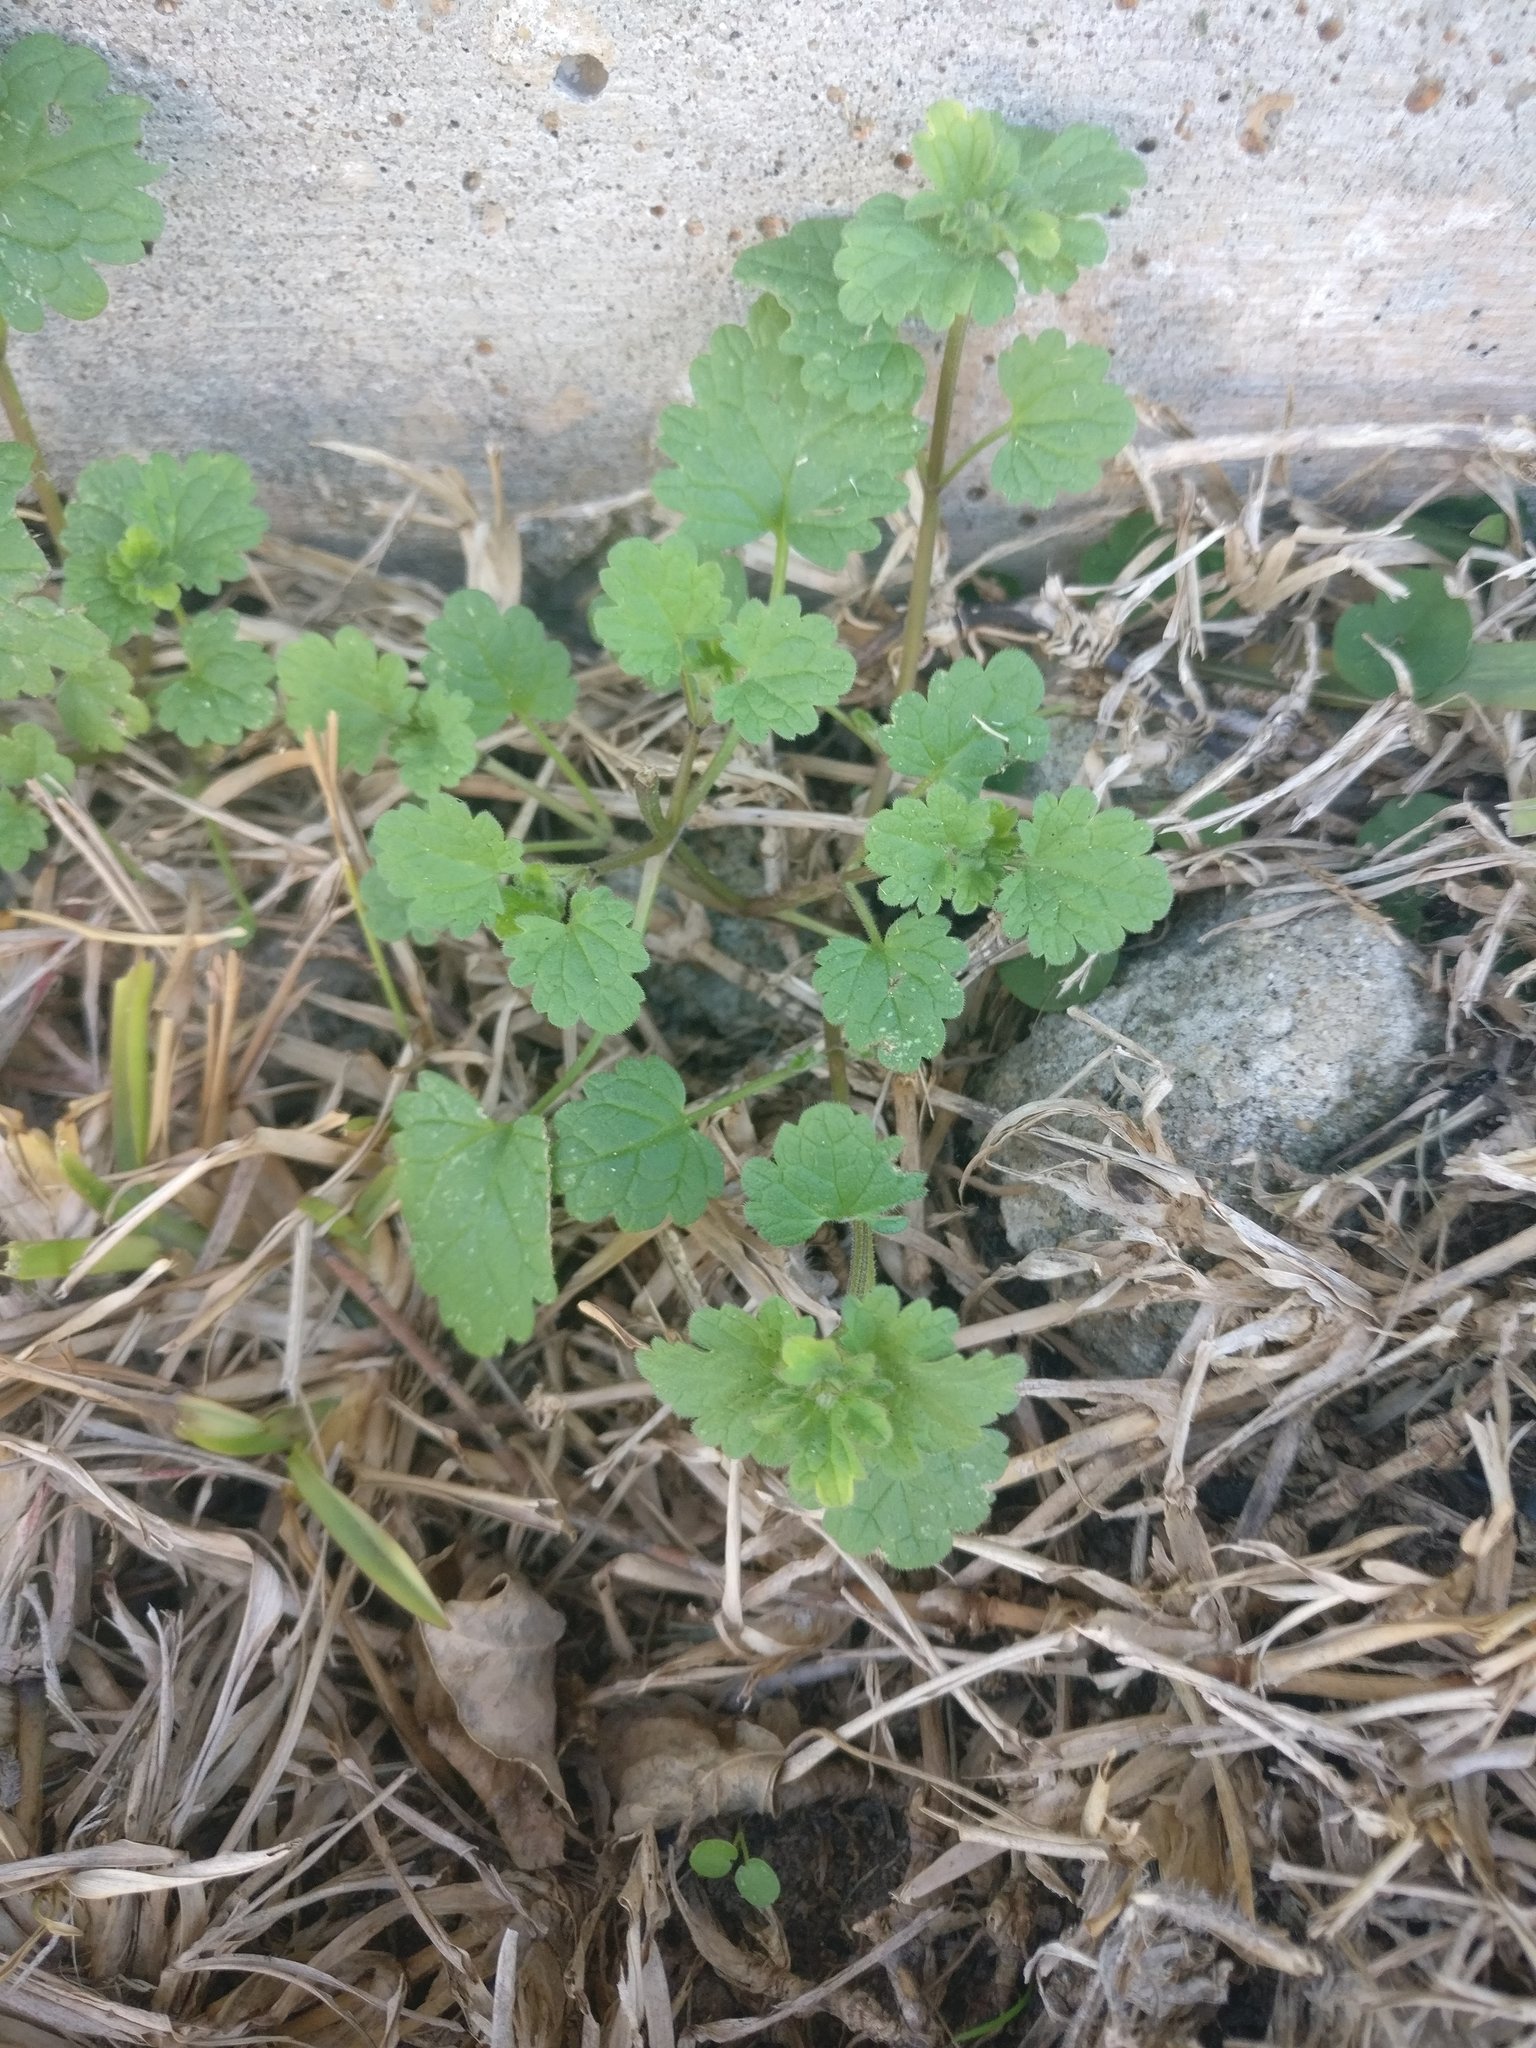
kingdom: Plantae
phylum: Tracheophyta
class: Magnoliopsida
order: Lamiales
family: Lamiaceae
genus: Lamium
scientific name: Lamium amplexicaule
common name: Henbit dead-nettle
